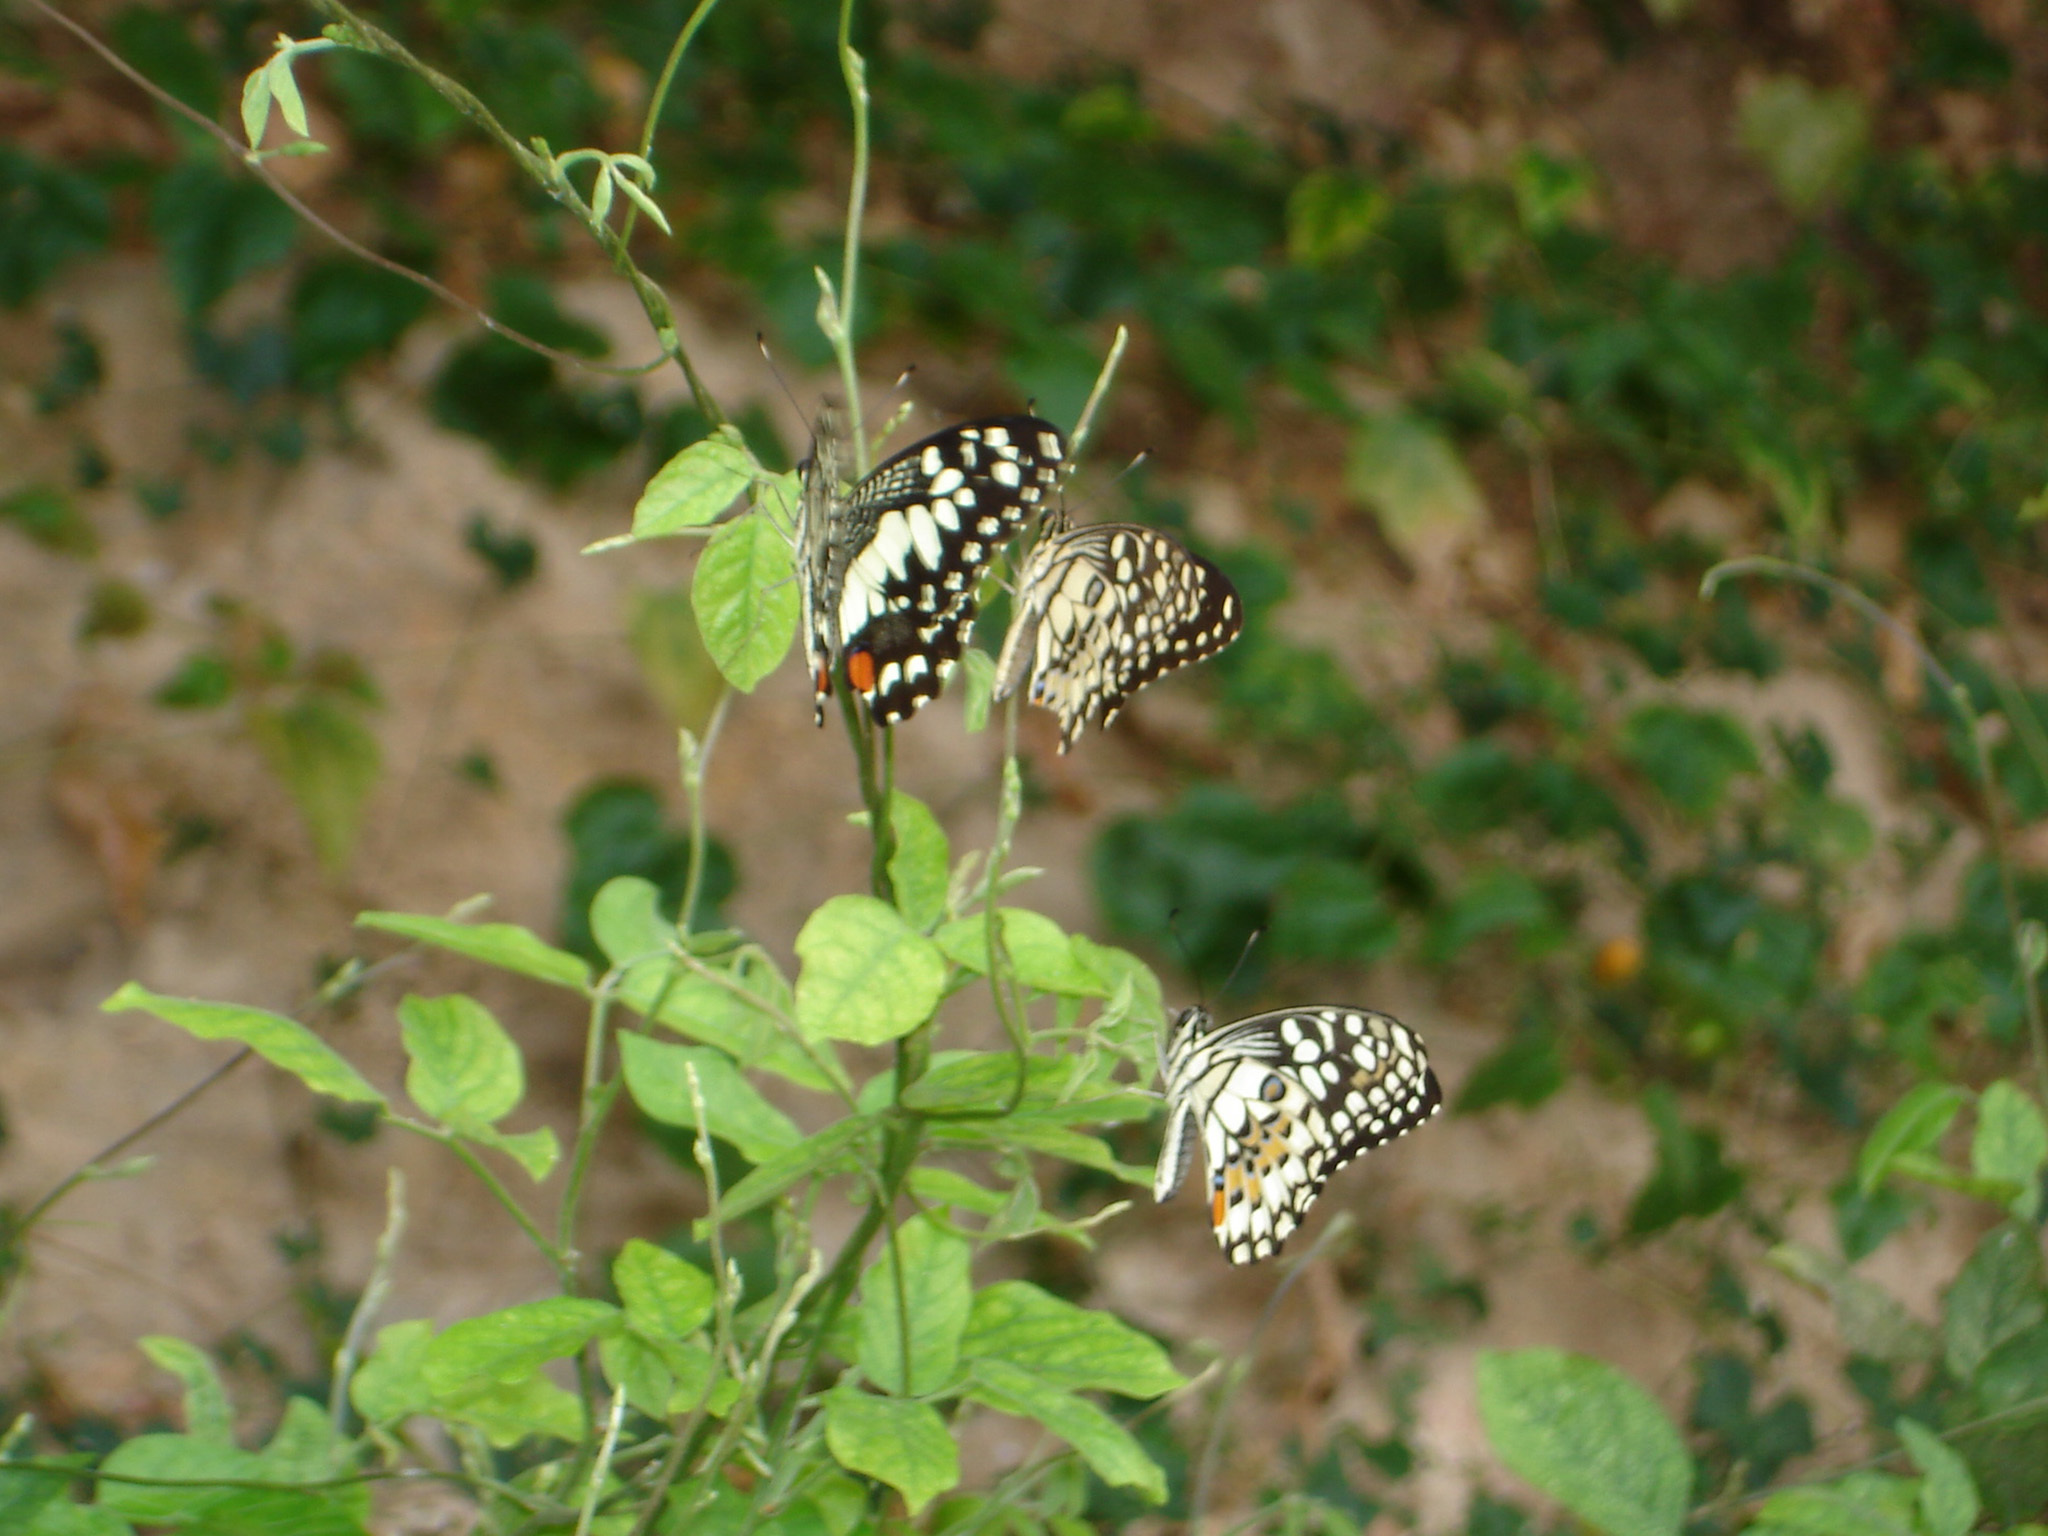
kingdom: Animalia
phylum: Arthropoda
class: Insecta
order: Lepidoptera
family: Papilionidae
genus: Papilio
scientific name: Papilio demoleus
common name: Lime butterfly
